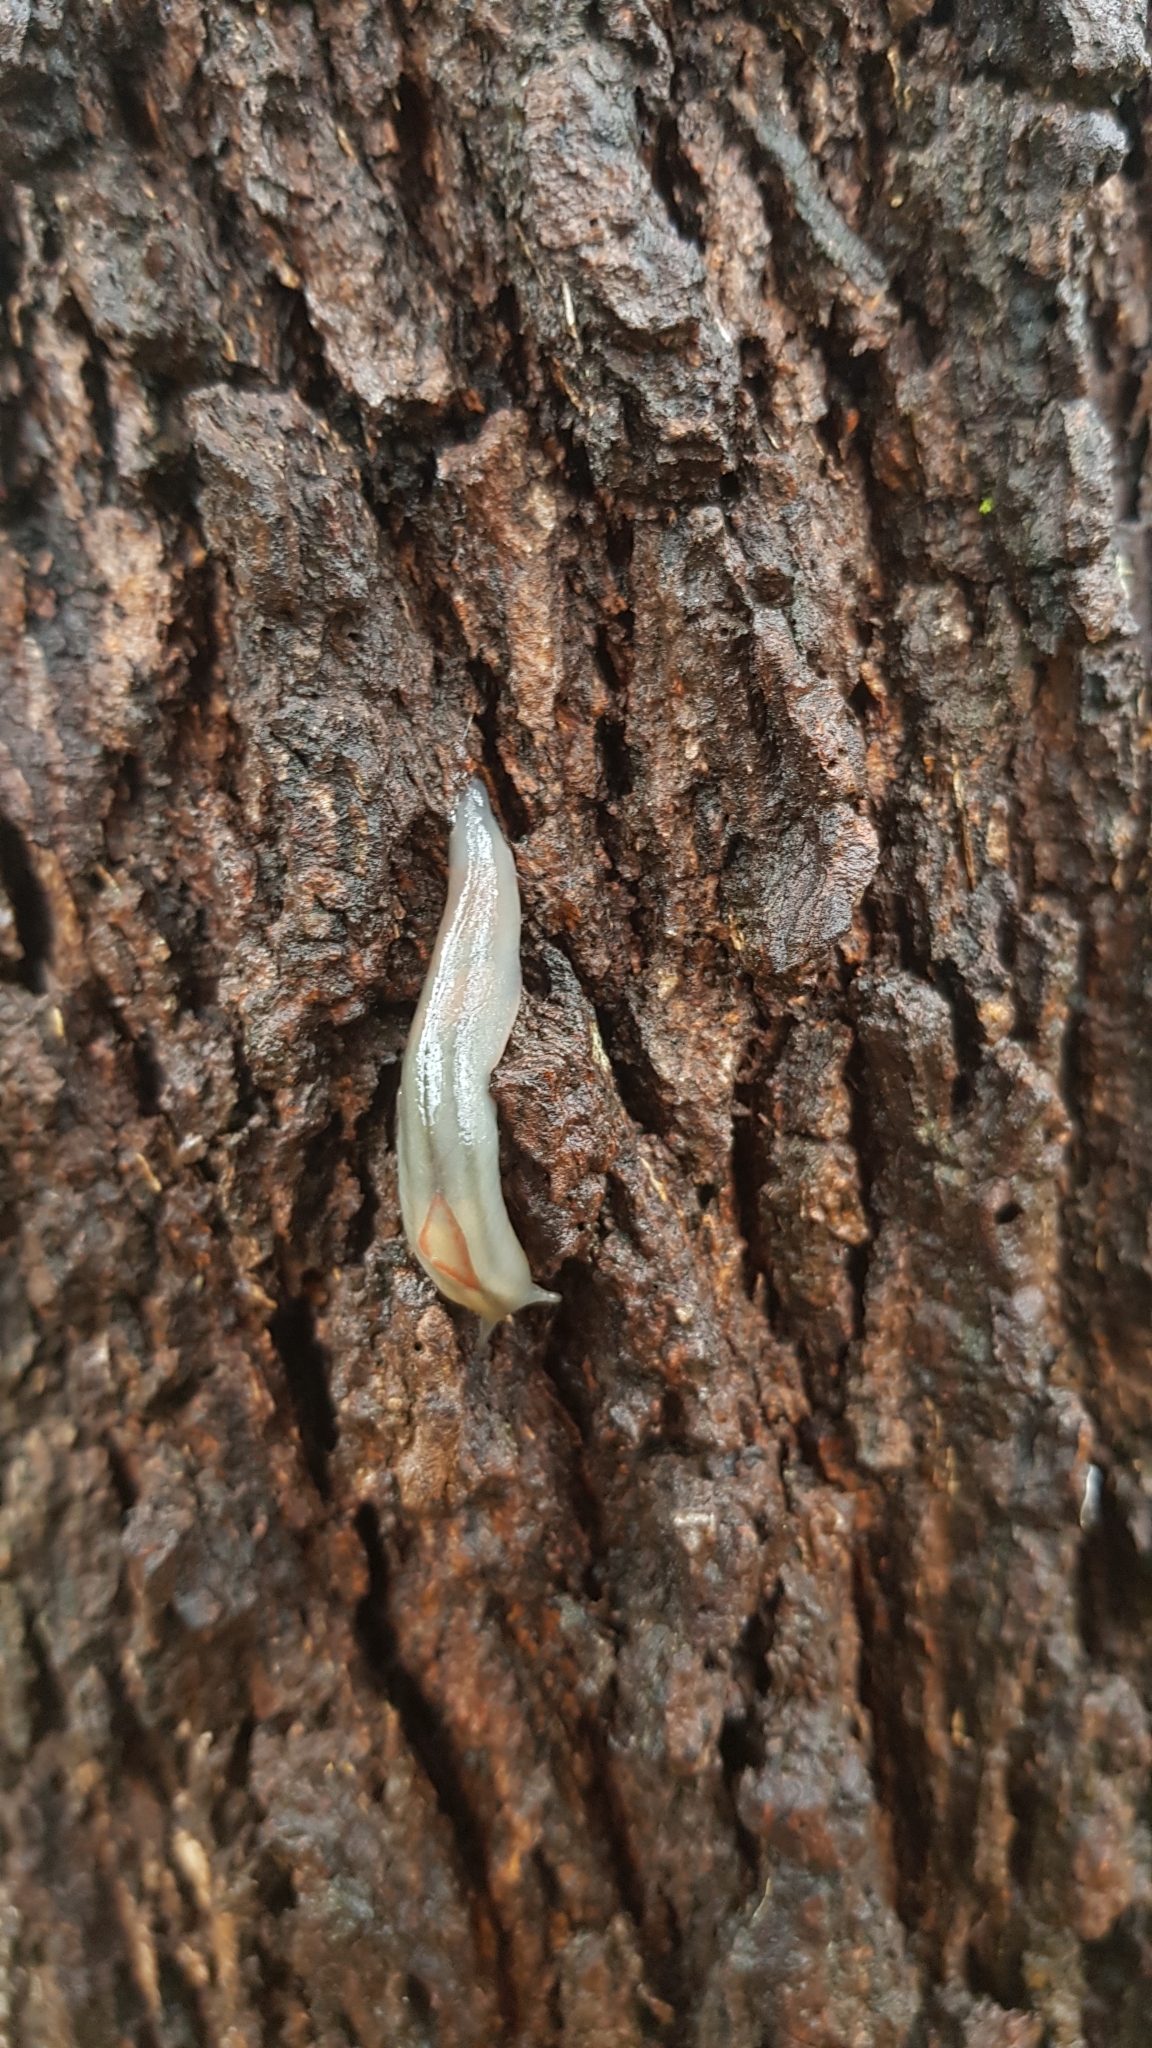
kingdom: Animalia
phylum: Mollusca
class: Gastropoda
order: Stylommatophora
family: Athoracophoridae
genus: Triboniophorus
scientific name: Triboniophorus graeffei
